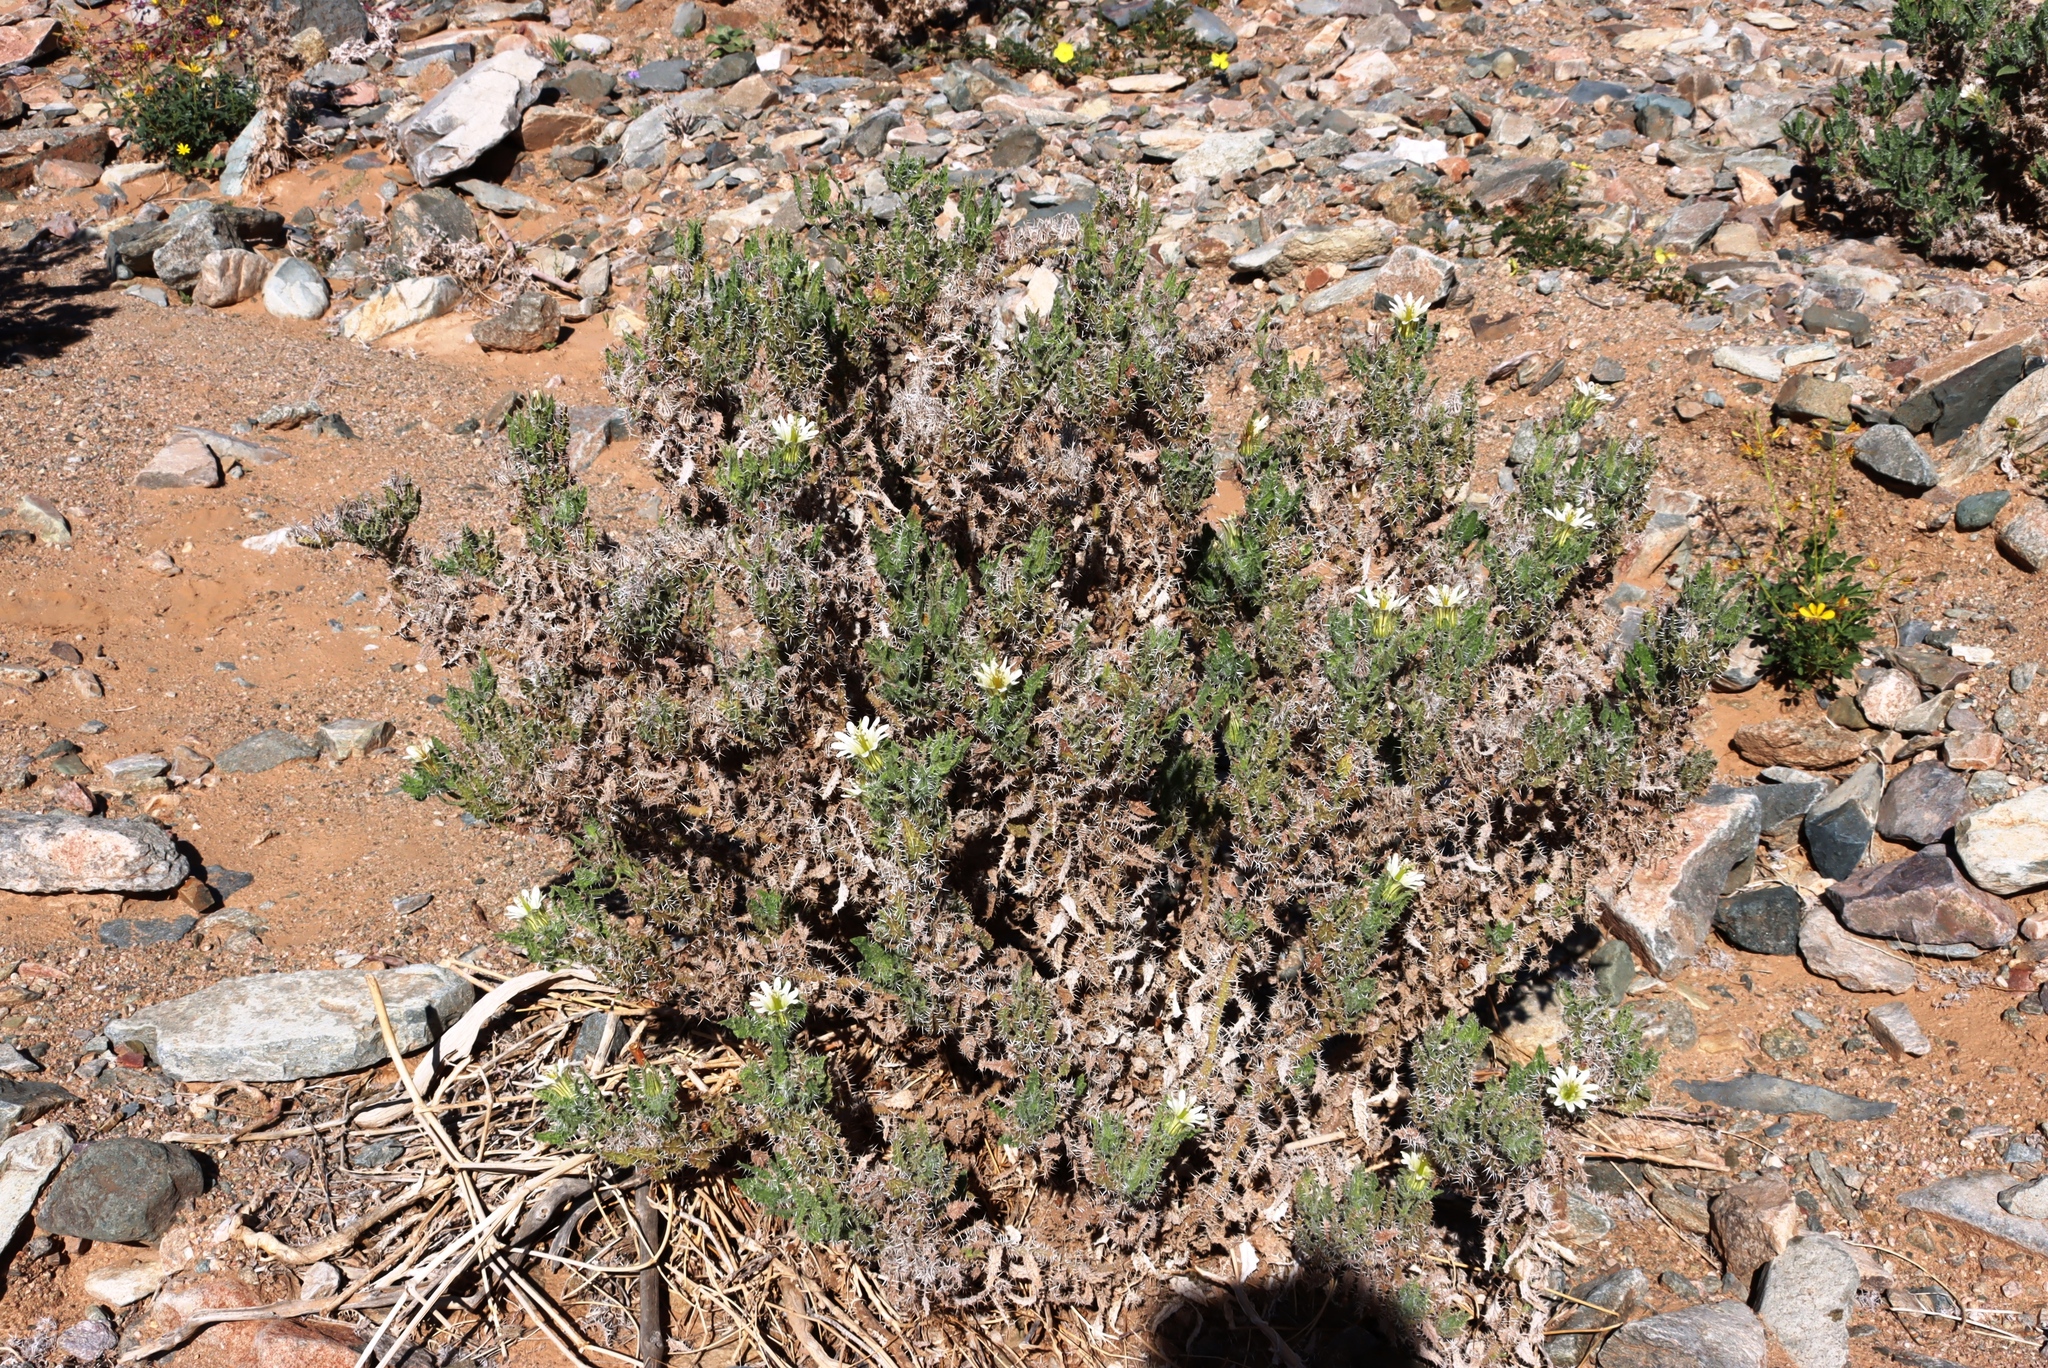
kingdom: Plantae
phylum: Tracheophyta
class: Magnoliopsida
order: Boraginales
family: Boraginaceae
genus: Codon
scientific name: Codon royenii
